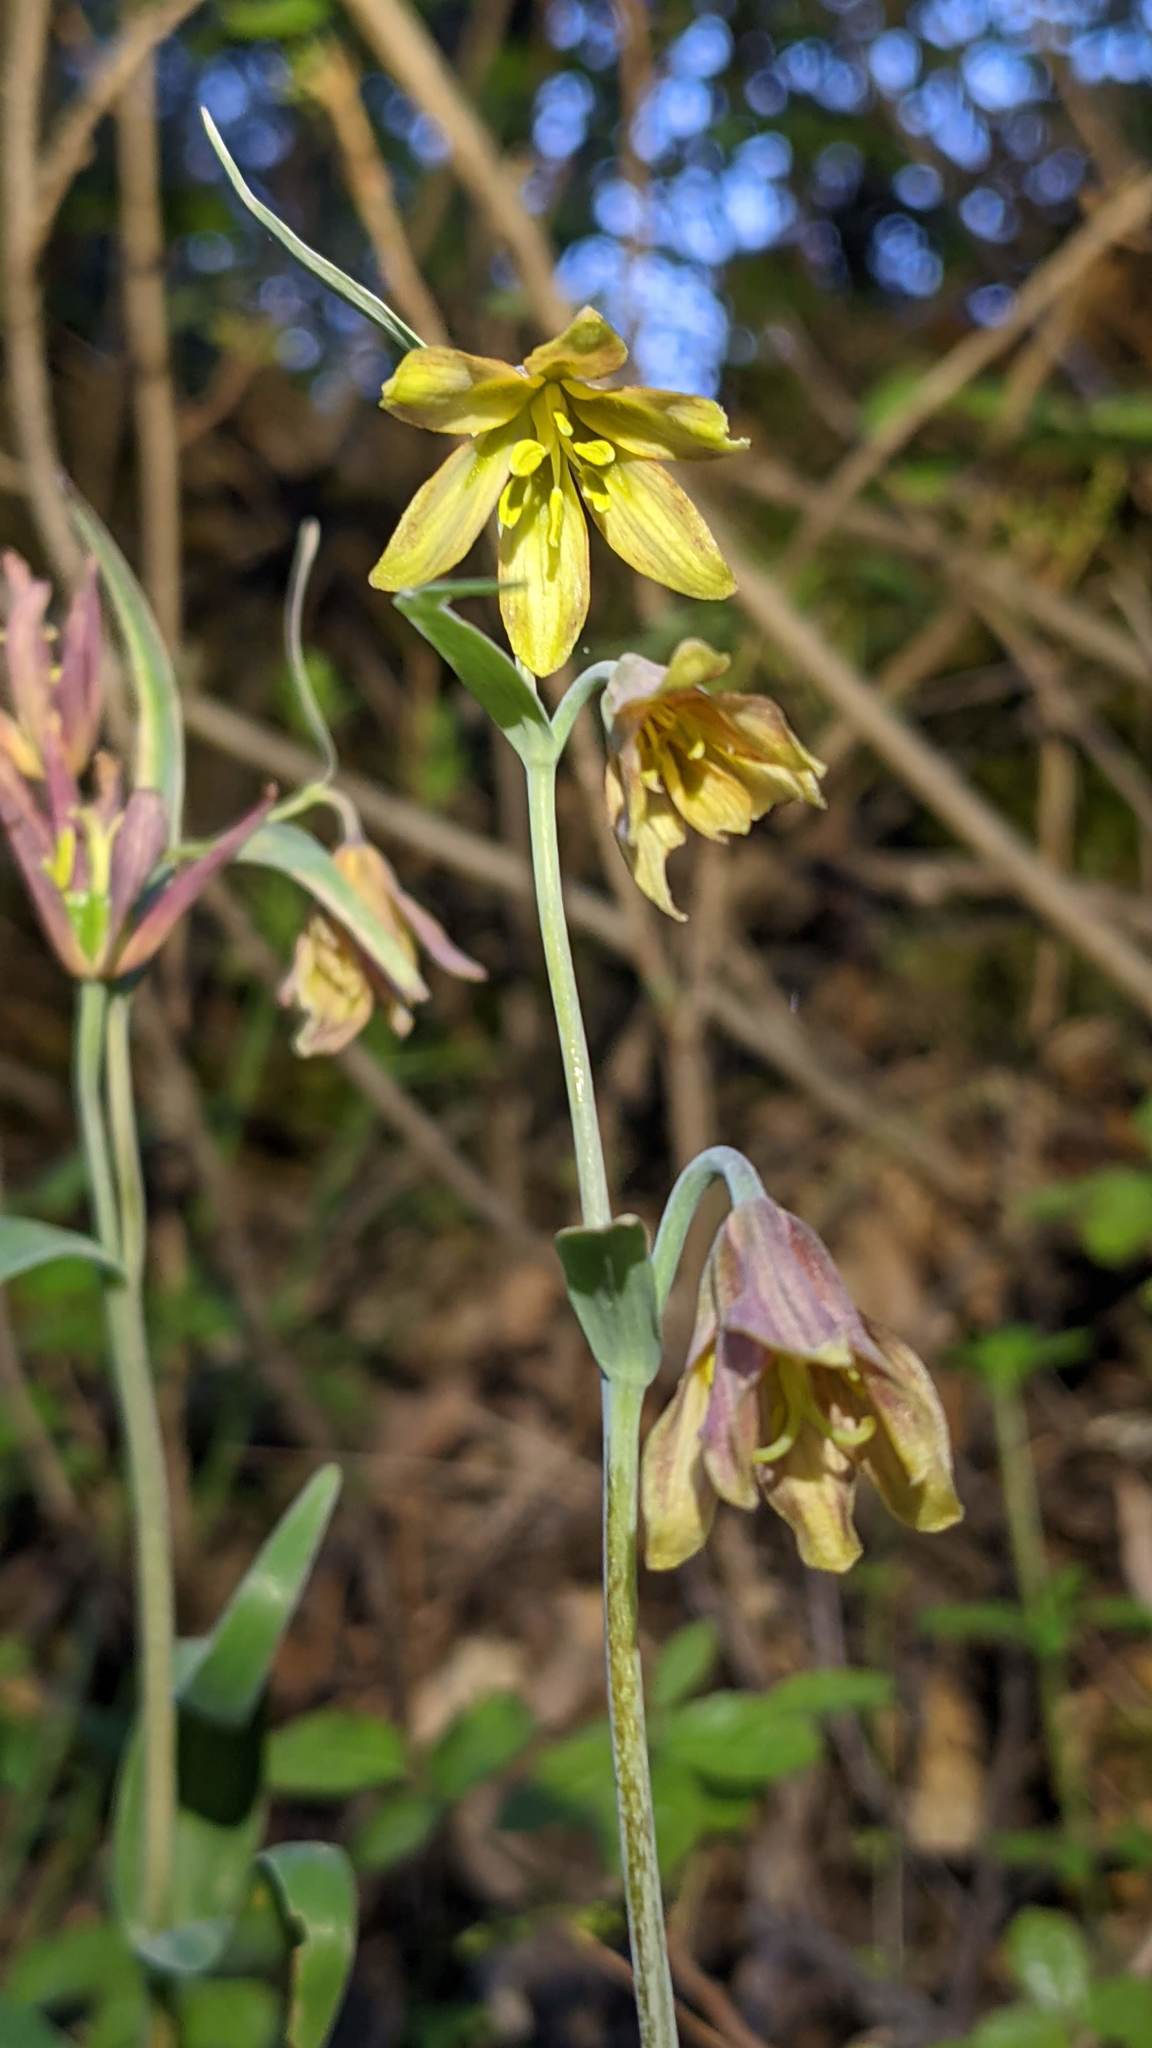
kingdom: Plantae
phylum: Tracheophyta
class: Liliopsida
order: Liliales
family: Liliaceae
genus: Fritillaria
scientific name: Fritillaria eastwoodiae
